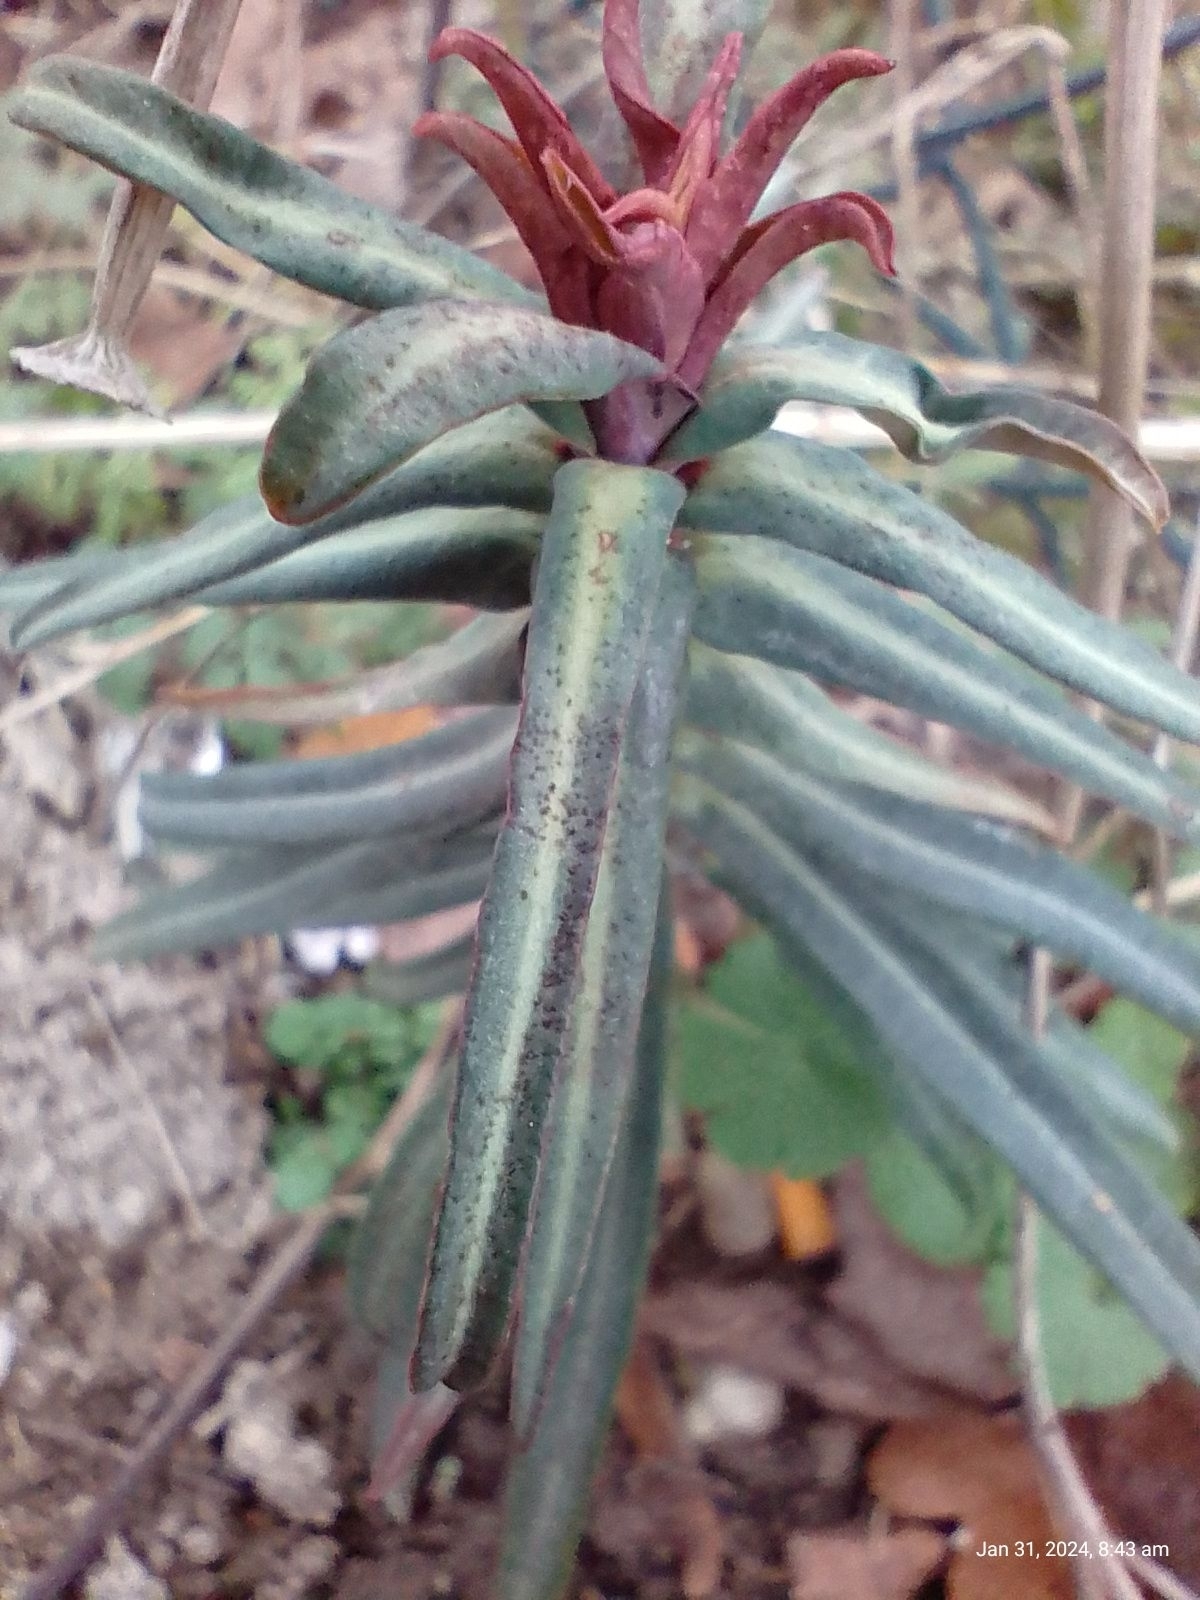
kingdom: Plantae
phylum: Tracheophyta
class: Magnoliopsida
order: Malpighiales
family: Euphorbiaceae
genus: Euphorbia
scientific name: Euphorbia lathyris
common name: Caper spurge
